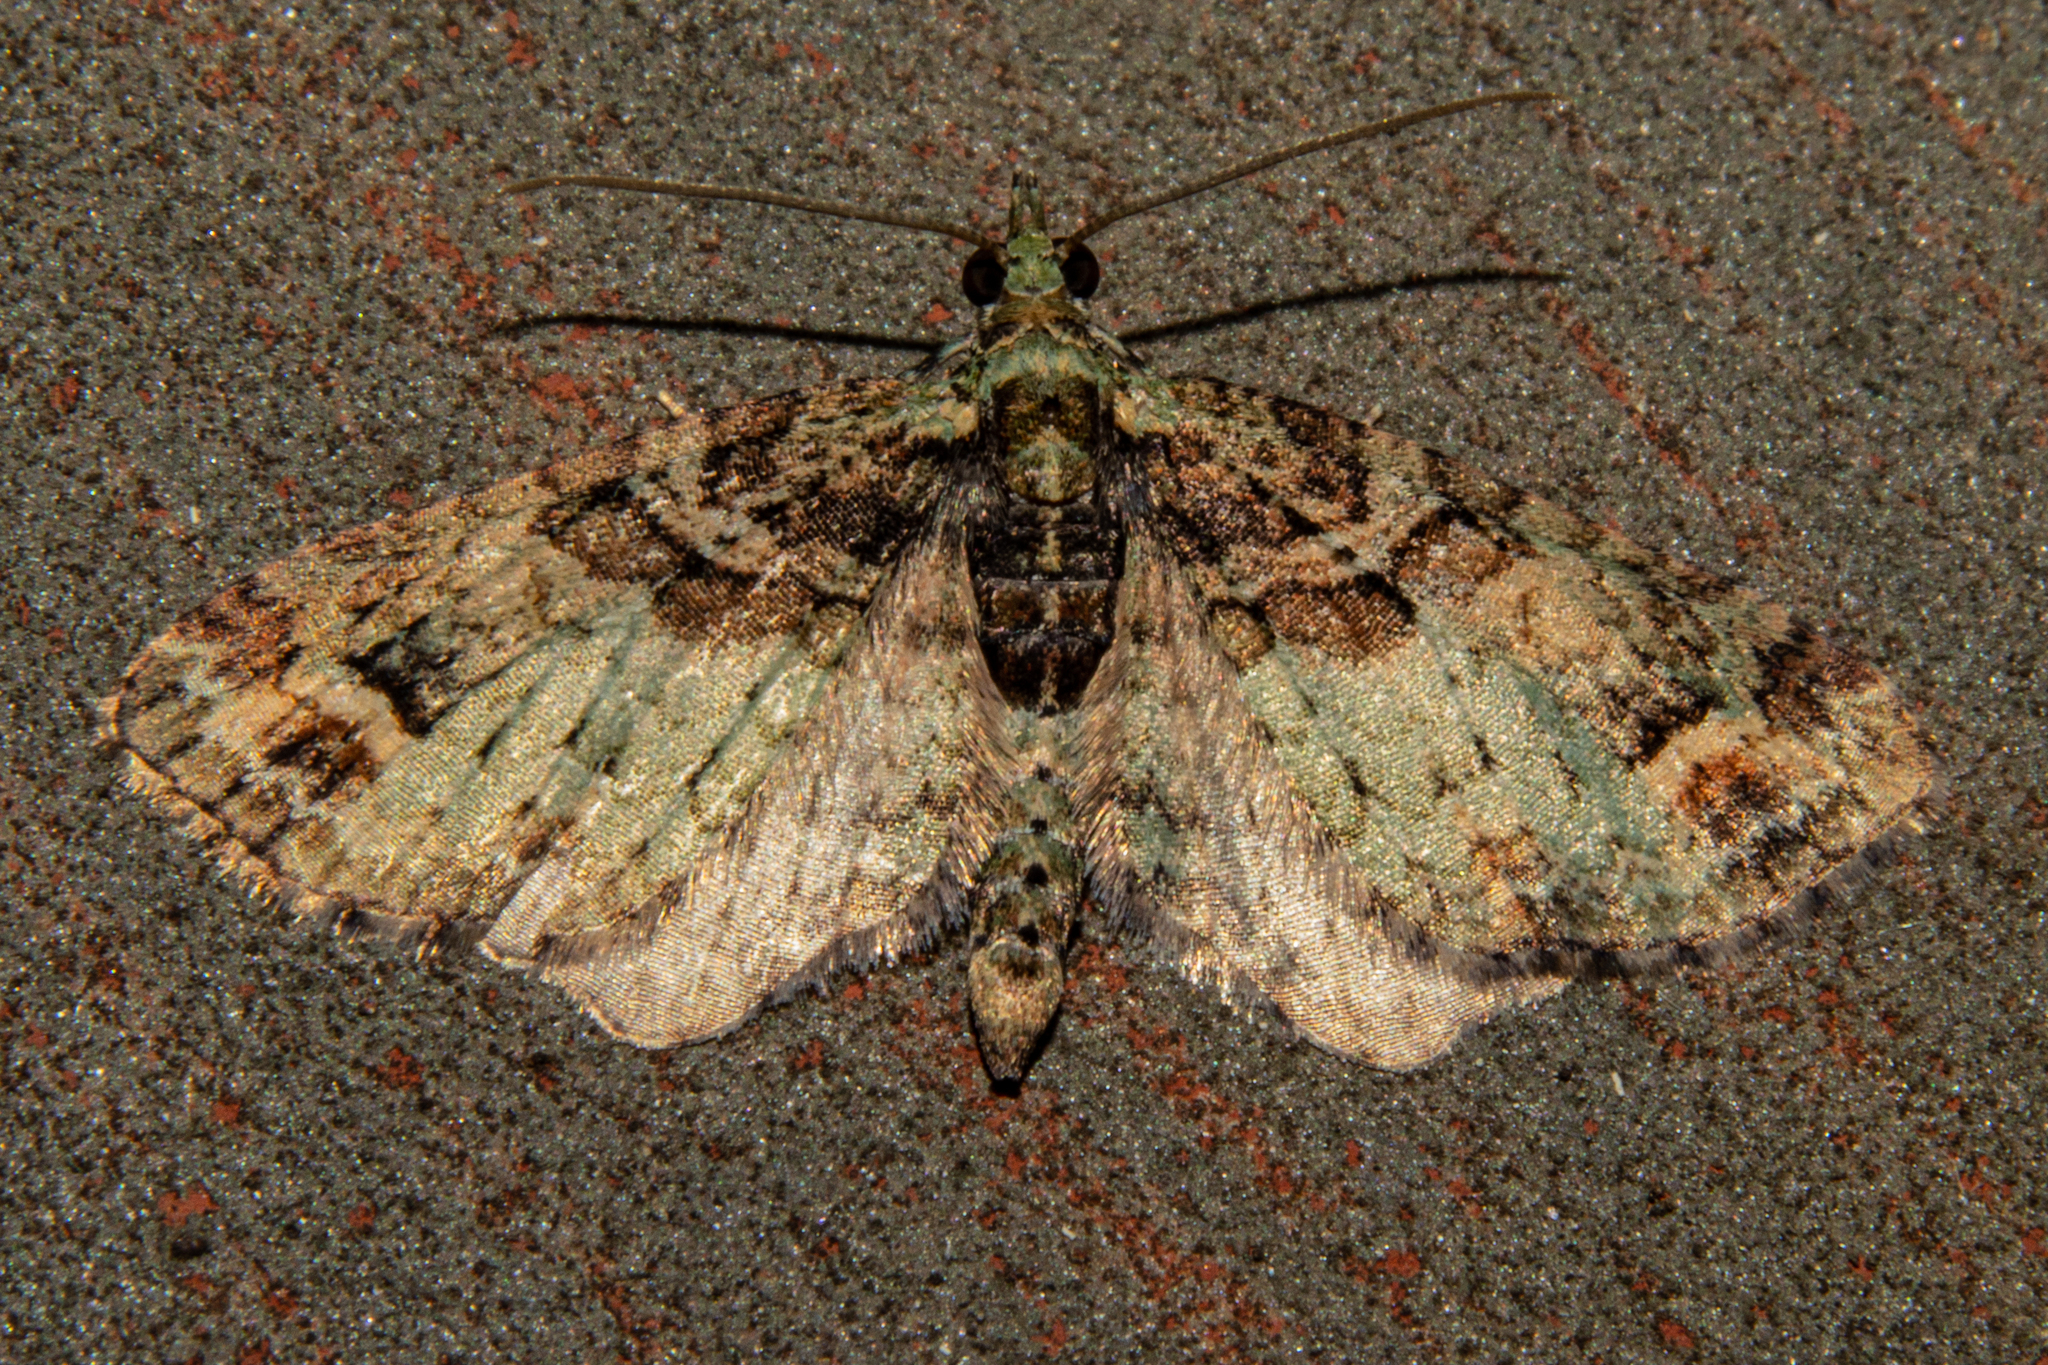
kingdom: Animalia
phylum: Arthropoda
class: Insecta
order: Lepidoptera
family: Geometridae
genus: Idaea
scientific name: Idaea mutanda
